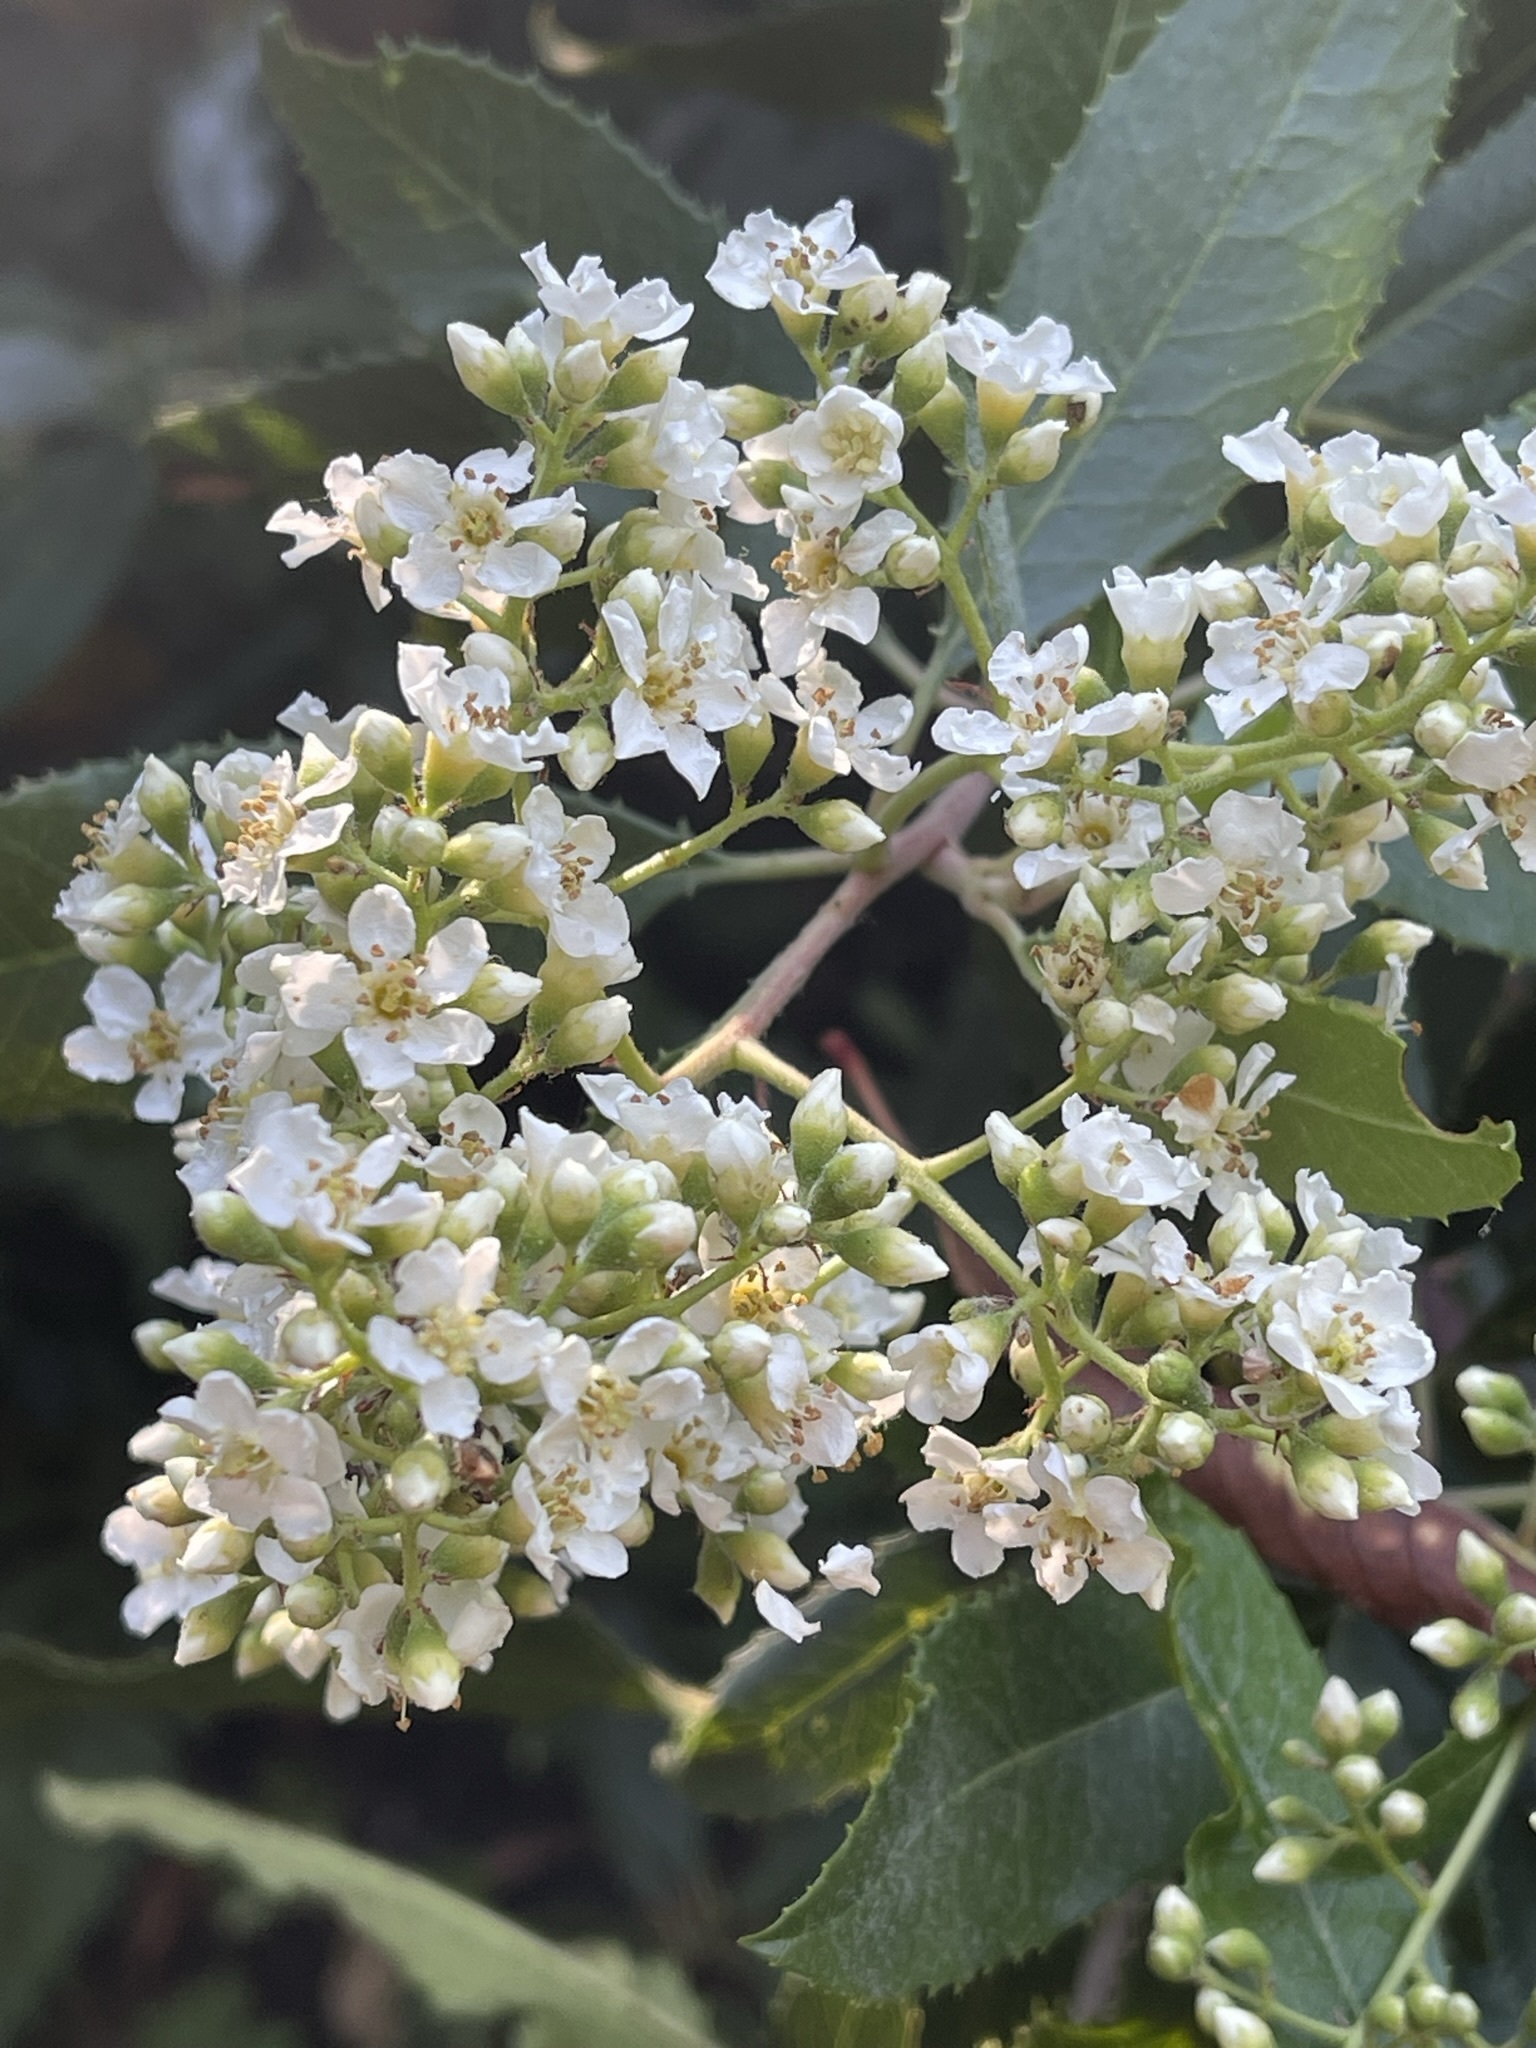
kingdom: Plantae
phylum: Tracheophyta
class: Magnoliopsida
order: Rosales
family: Rosaceae
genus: Heteromeles
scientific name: Heteromeles arbutifolia
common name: California-holly
